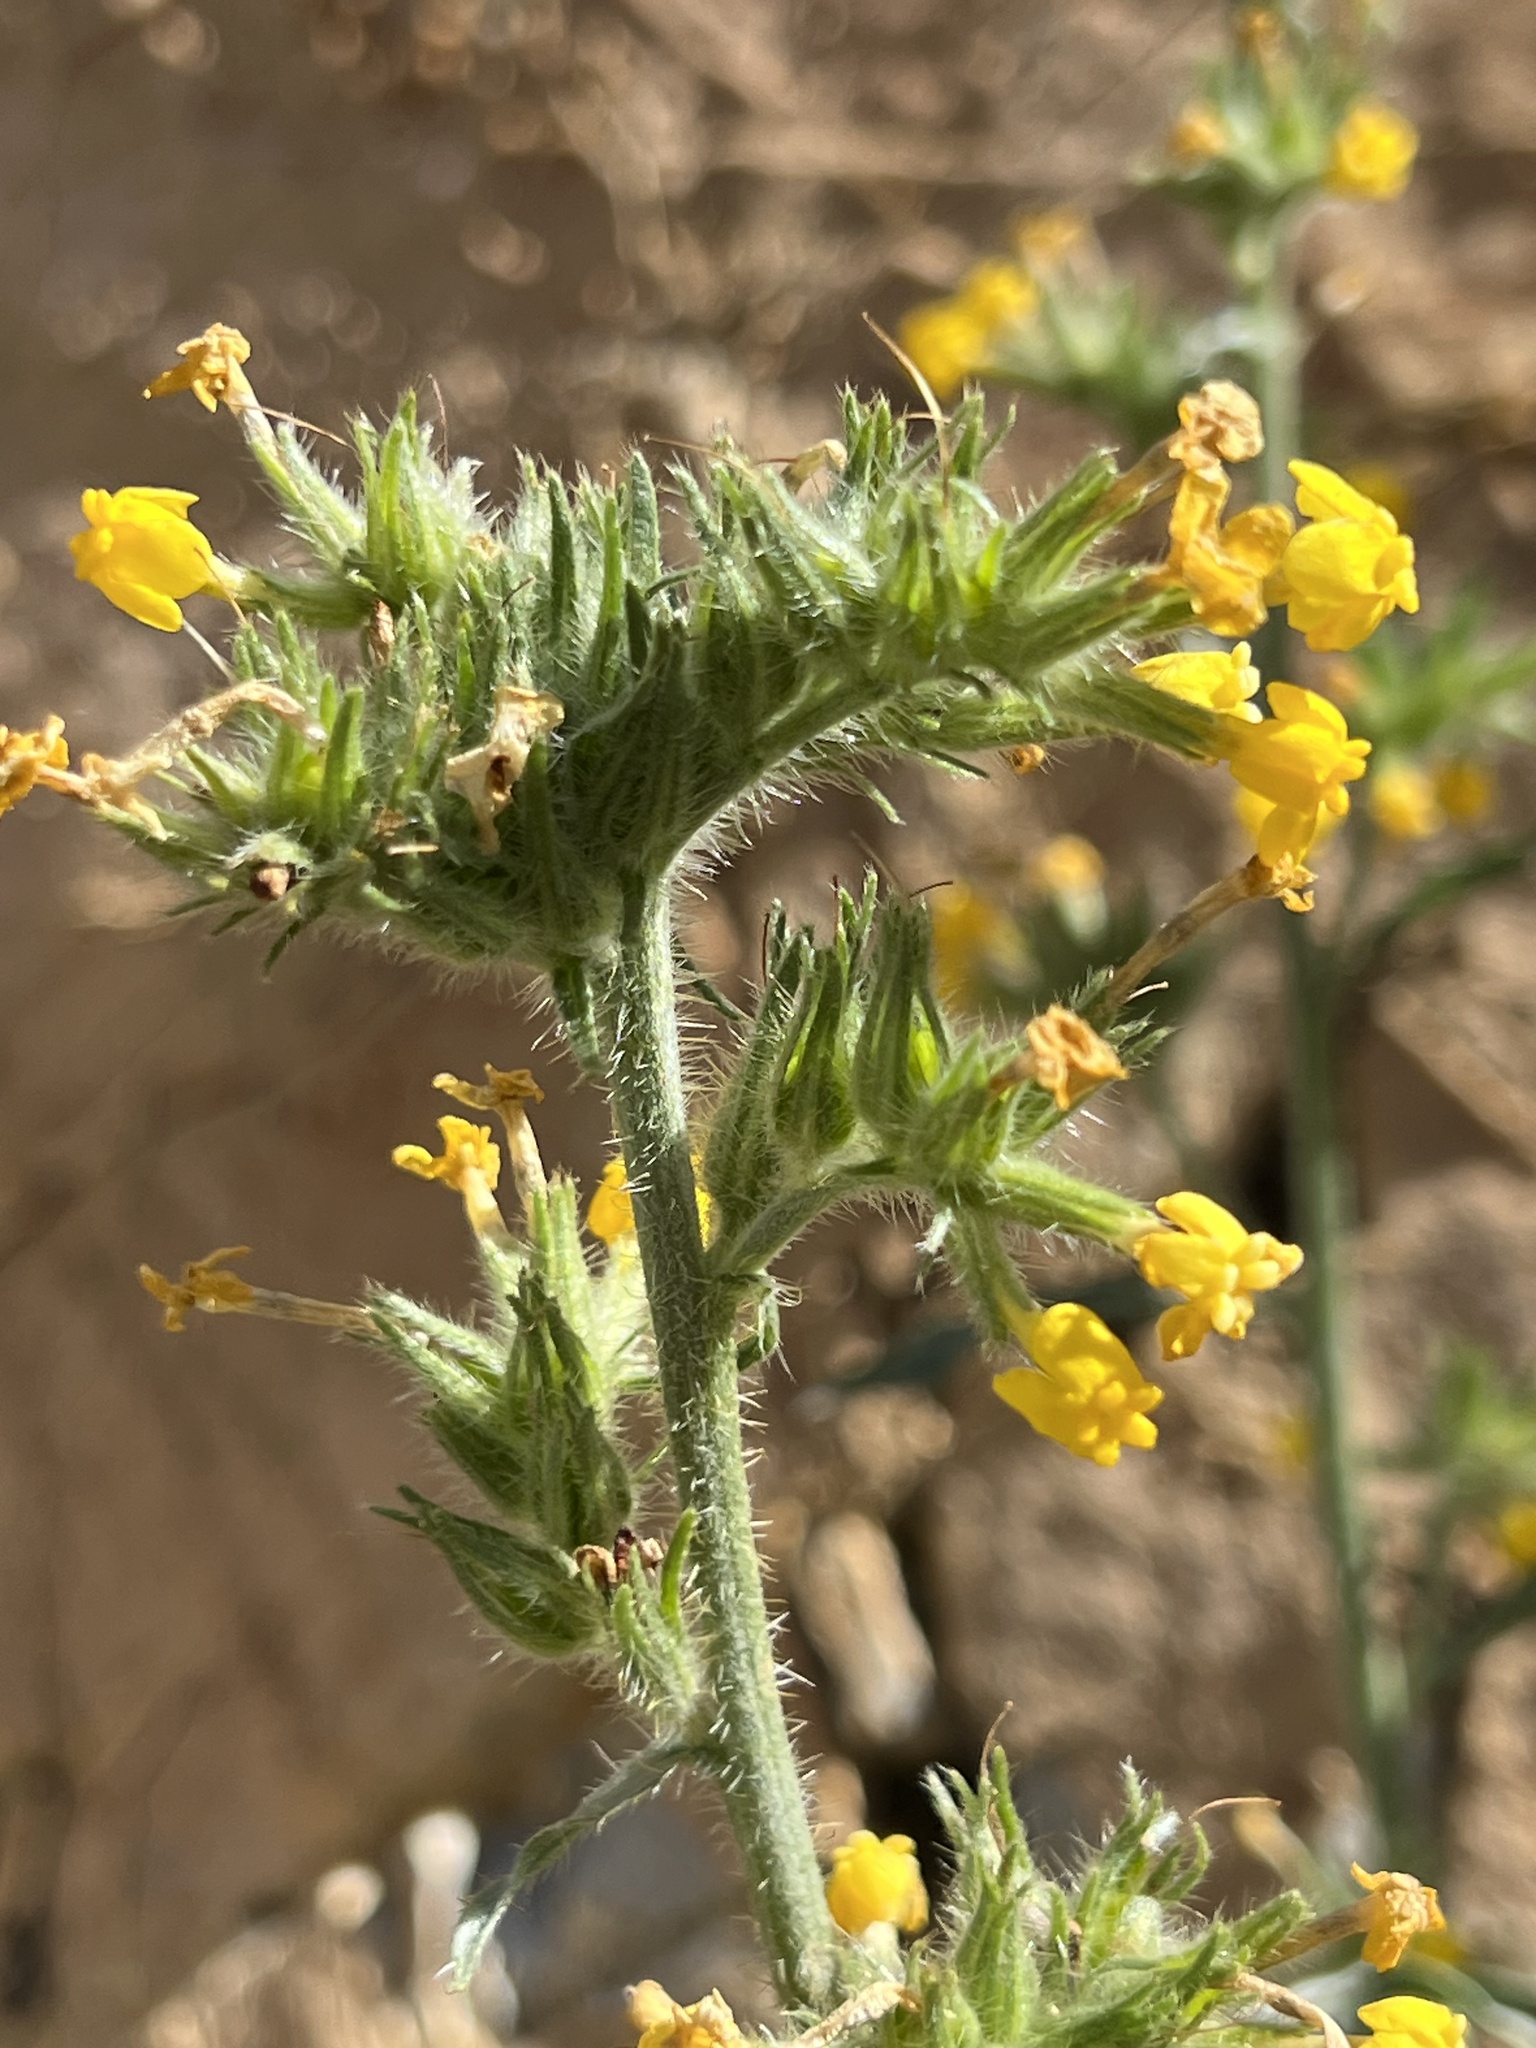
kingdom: Plantae
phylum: Tracheophyta
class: Magnoliopsida
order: Boraginales
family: Boraginaceae
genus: Oreocarya
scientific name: Oreocarya confertiflora
